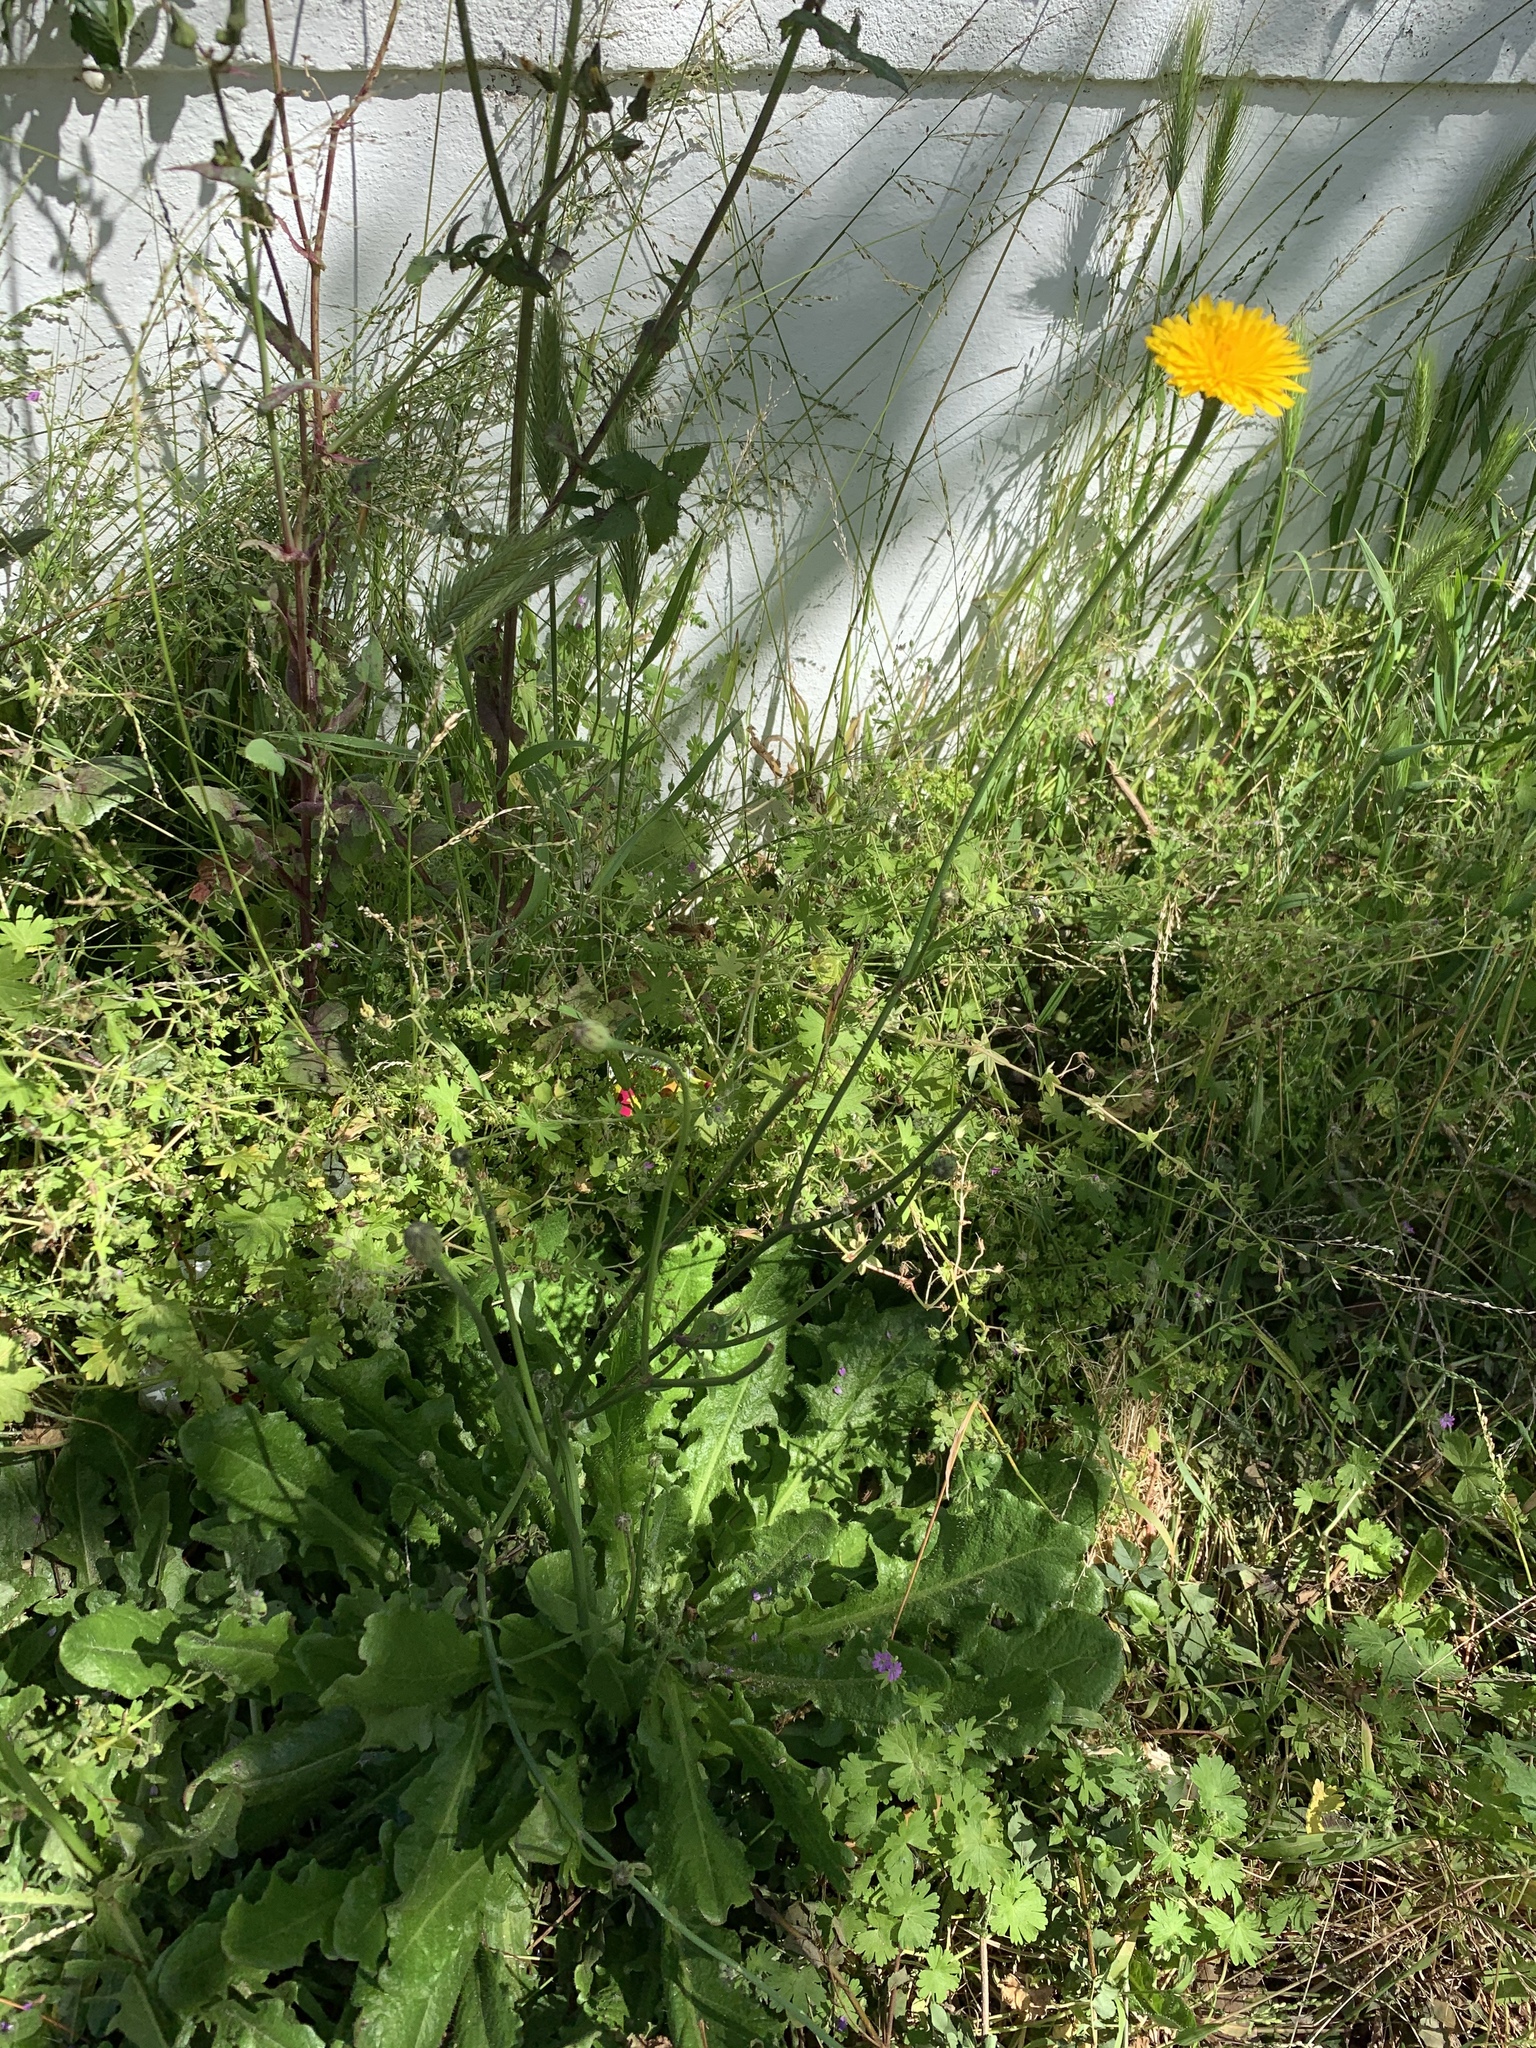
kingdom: Plantae
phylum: Tracheophyta
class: Magnoliopsida
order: Asterales
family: Asteraceae
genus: Hypochaeris
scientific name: Hypochaeris radicata
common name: Flatweed
